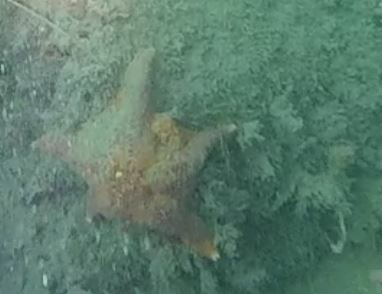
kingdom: Animalia
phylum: Echinodermata
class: Asteroidea
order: Valvatida
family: Asterinidae
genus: Patiria
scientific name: Patiria miniata
